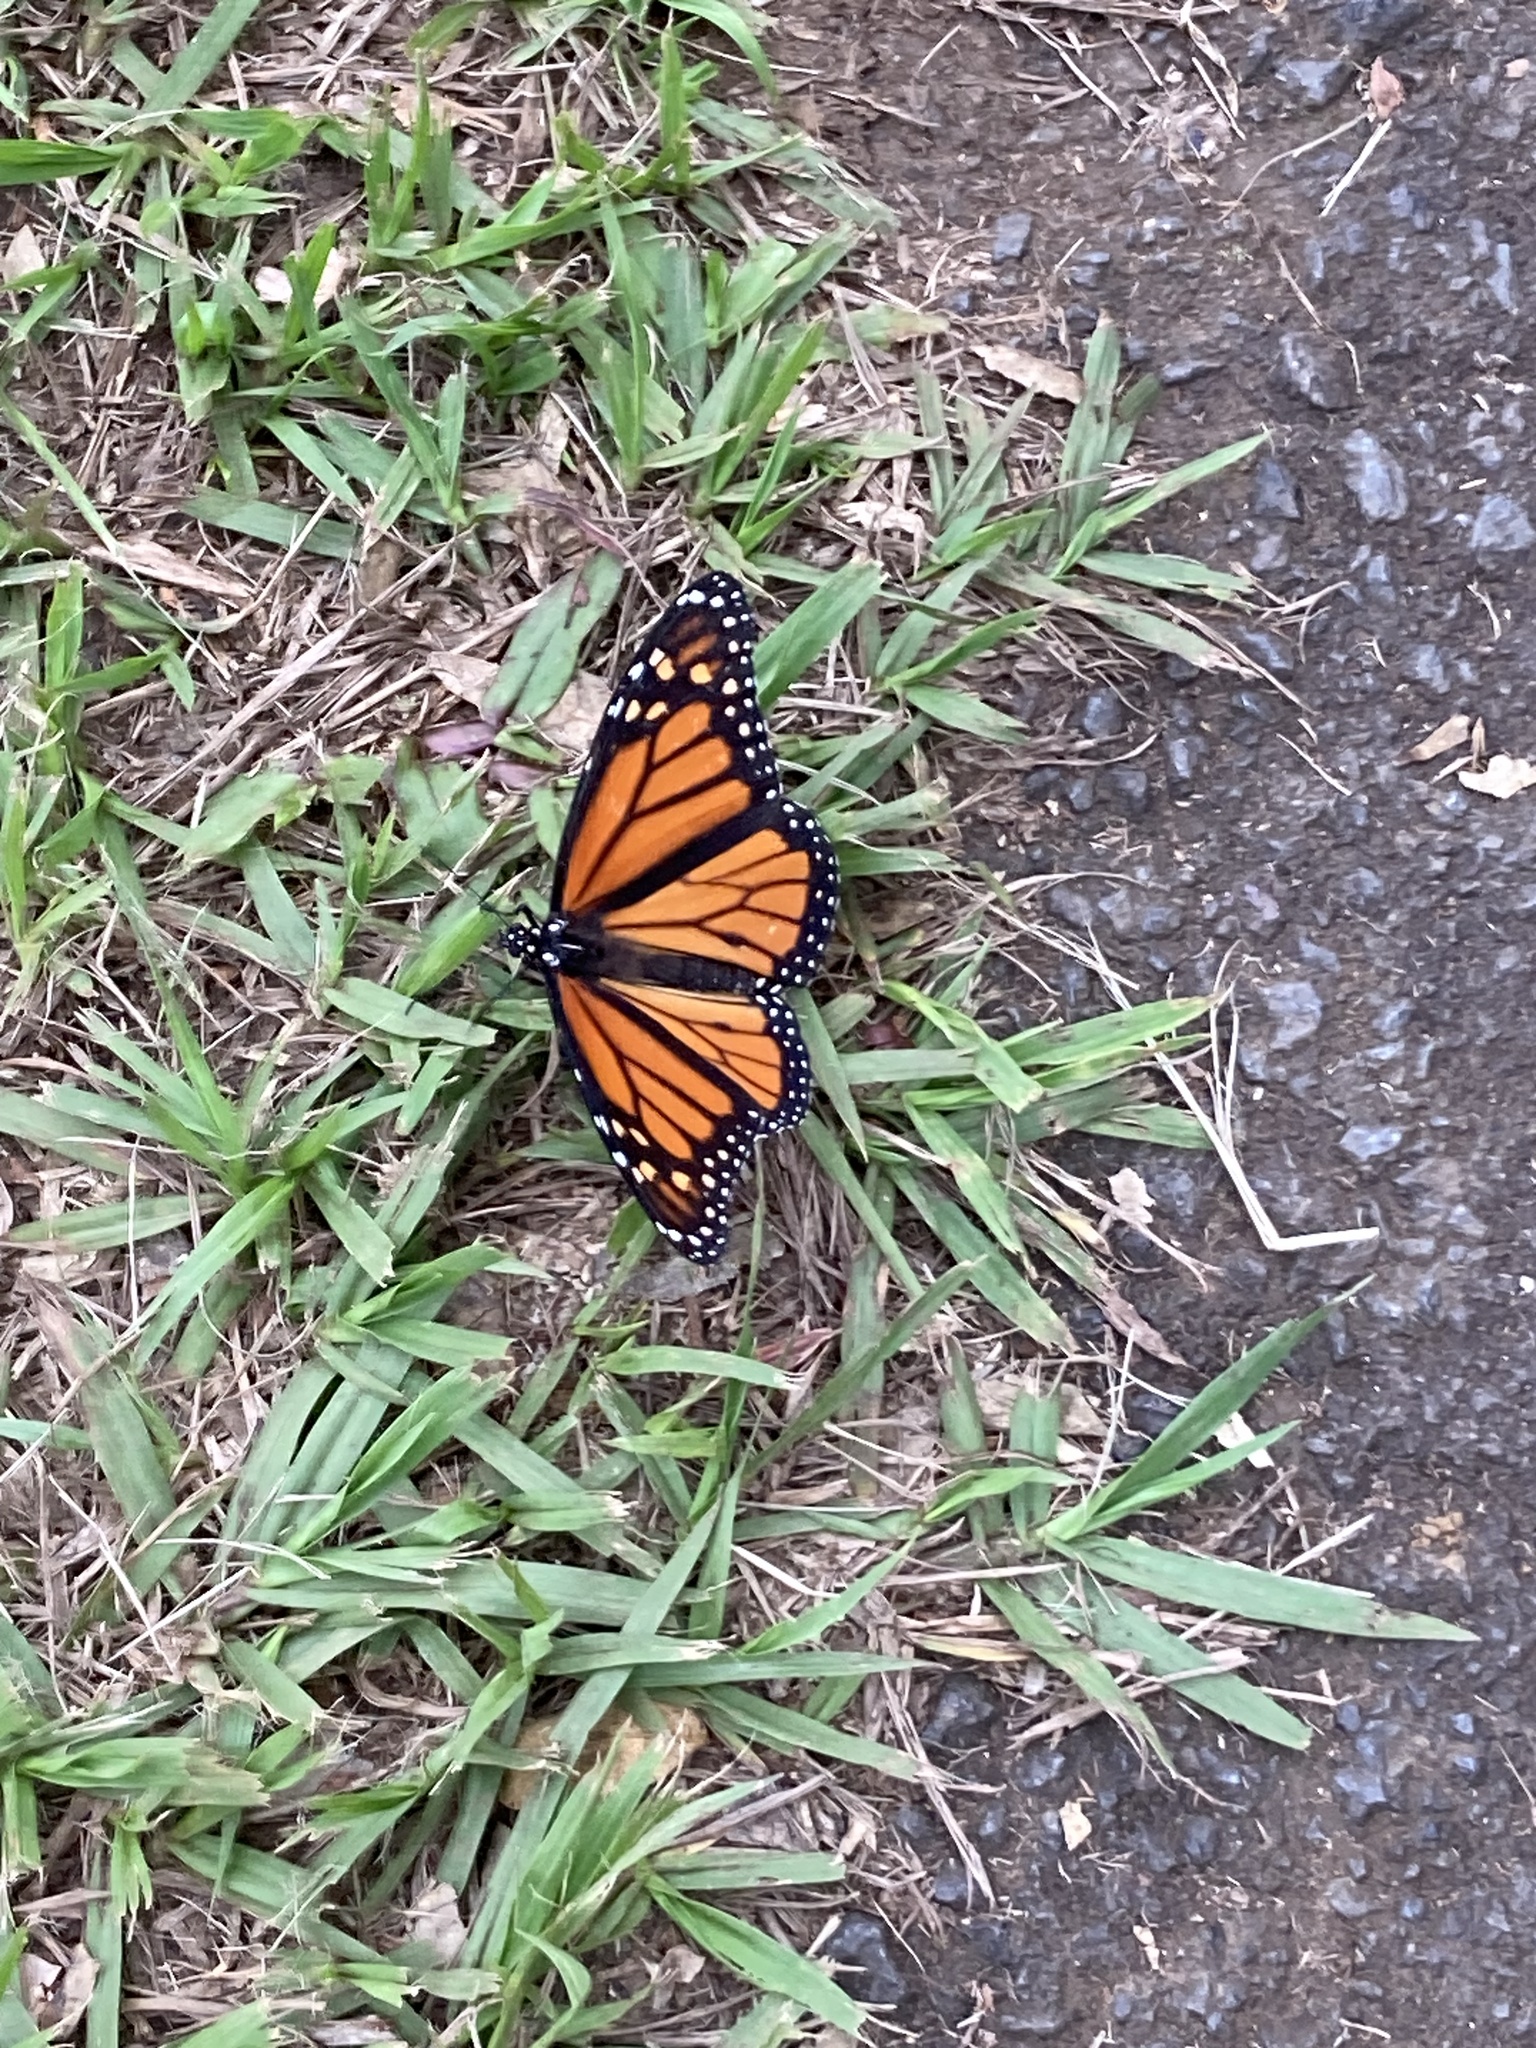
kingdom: Animalia
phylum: Arthropoda
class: Insecta
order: Lepidoptera
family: Nymphalidae
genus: Danaus
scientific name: Danaus plexippus
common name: Monarch
